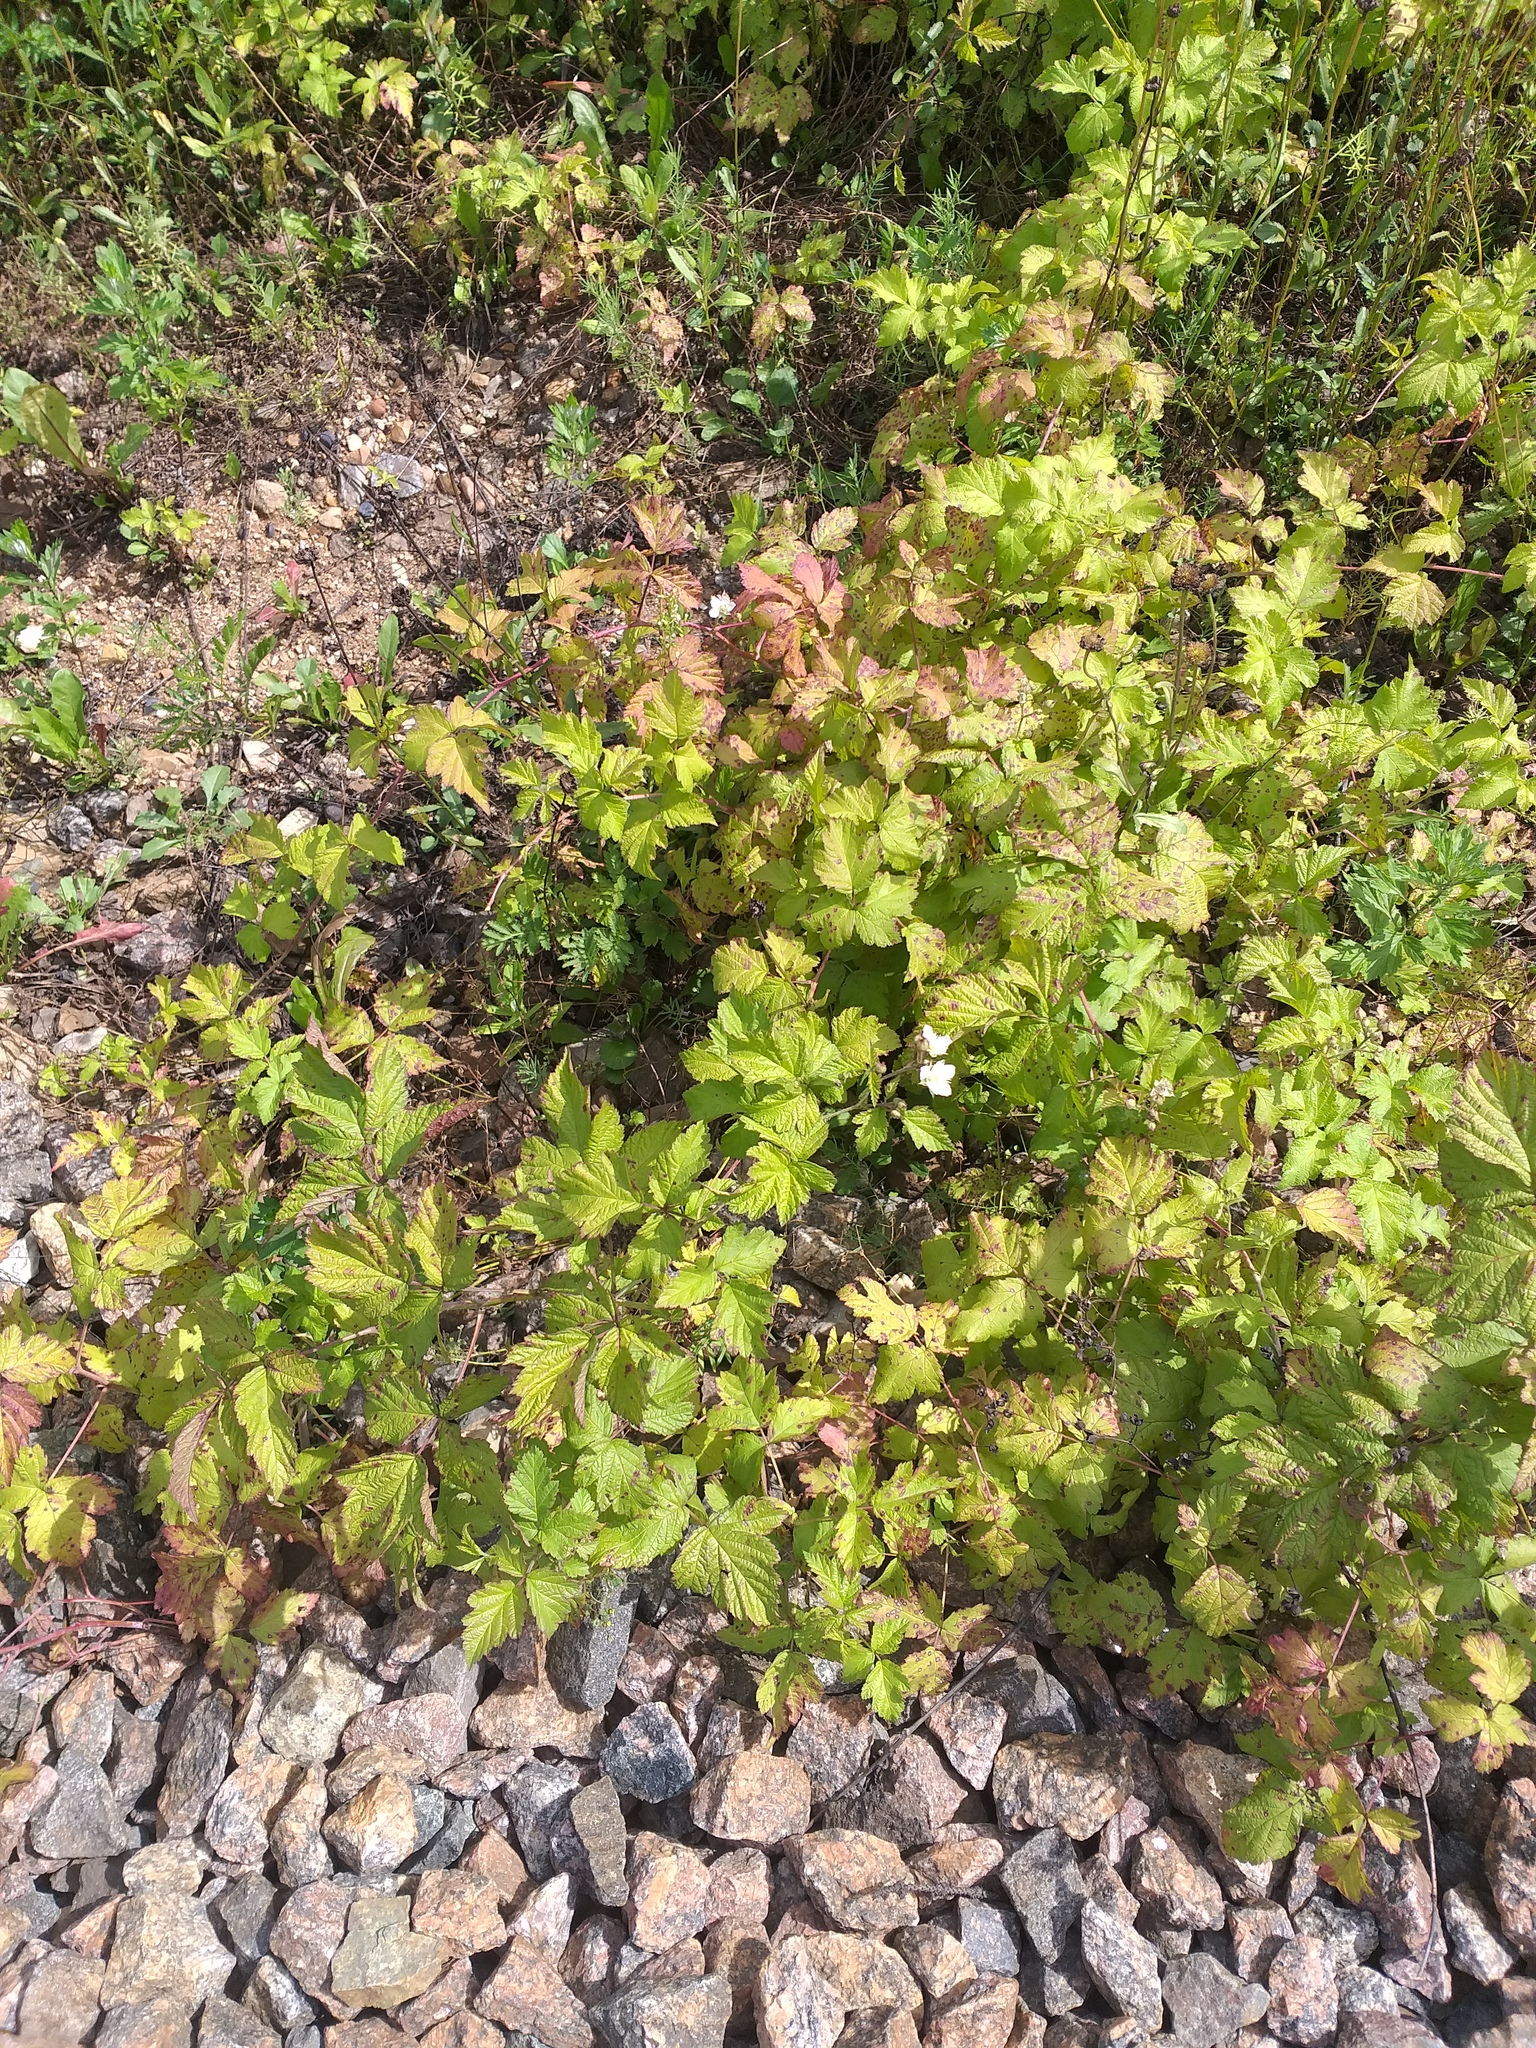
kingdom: Plantae
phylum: Tracheophyta
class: Magnoliopsida
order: Rosales
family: Rosaceae
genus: Rubus
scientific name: Rubus caesius
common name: Dewberry
